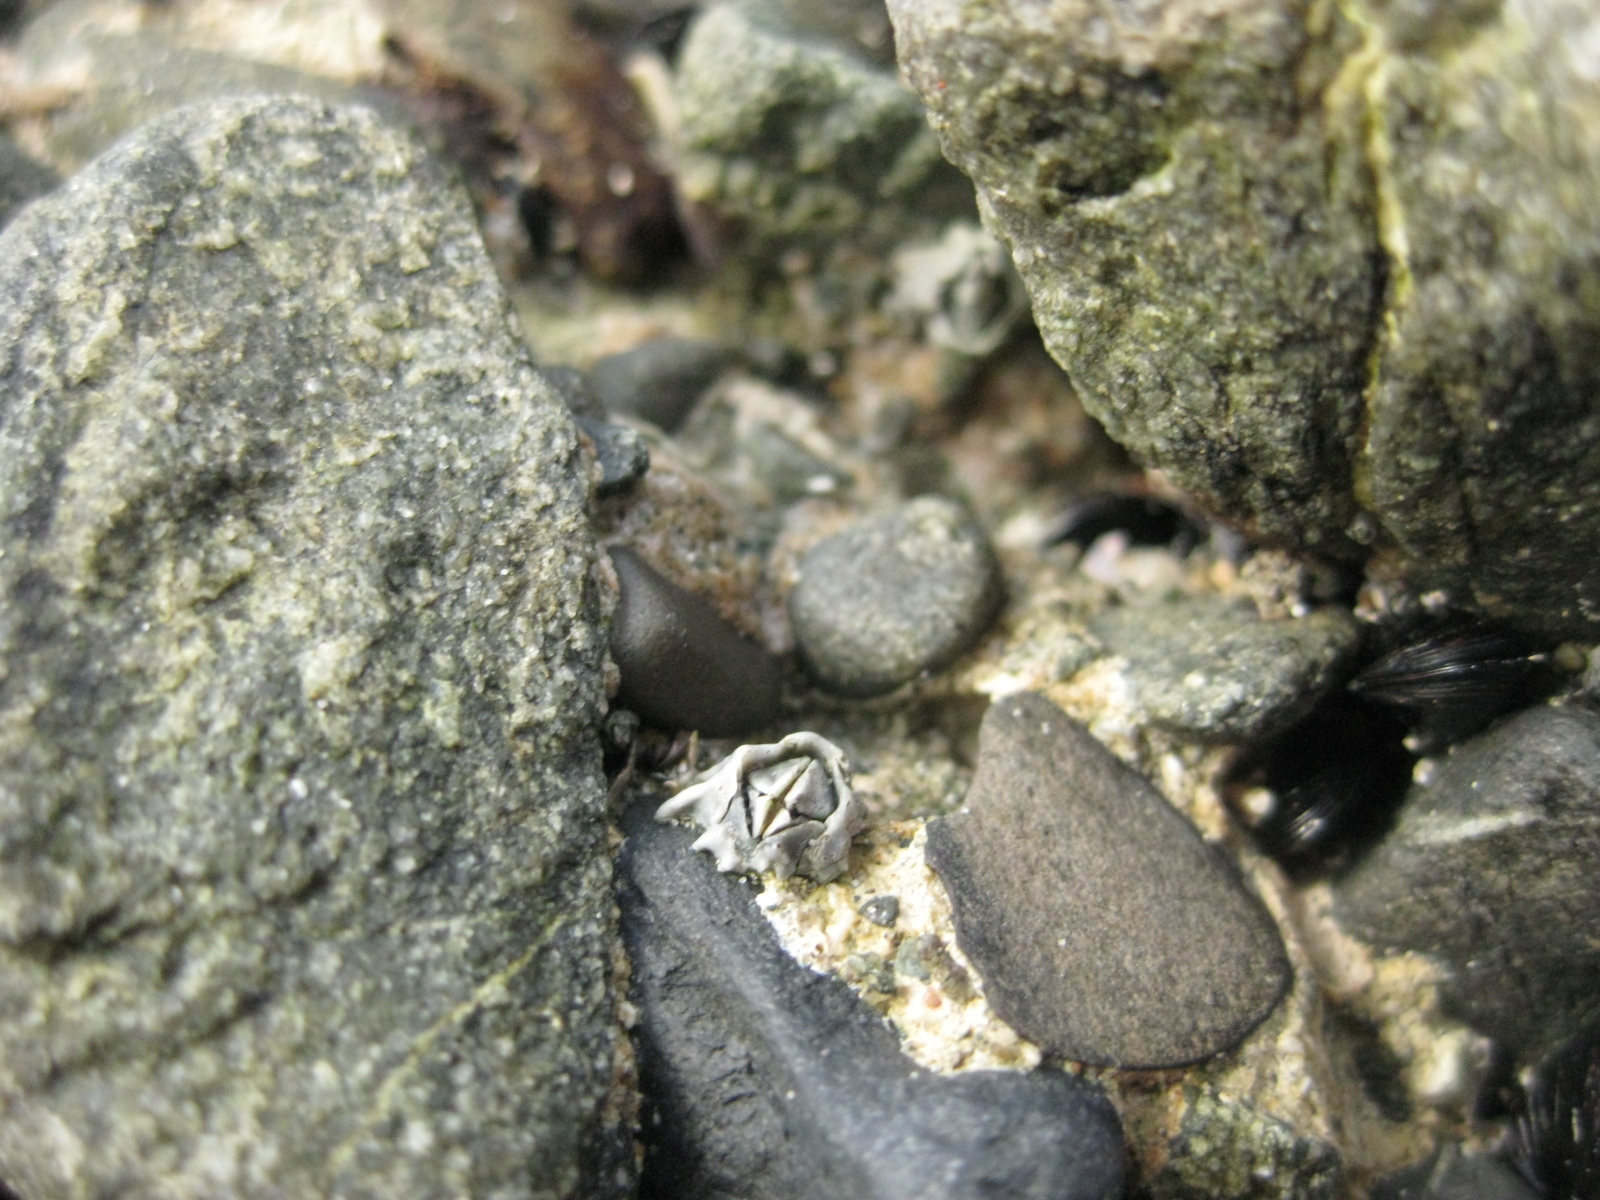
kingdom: Animalia
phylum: Arthropoda
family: Elminiidae
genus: Austrominius
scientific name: Austrominius modestus
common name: Australasian barnacle
